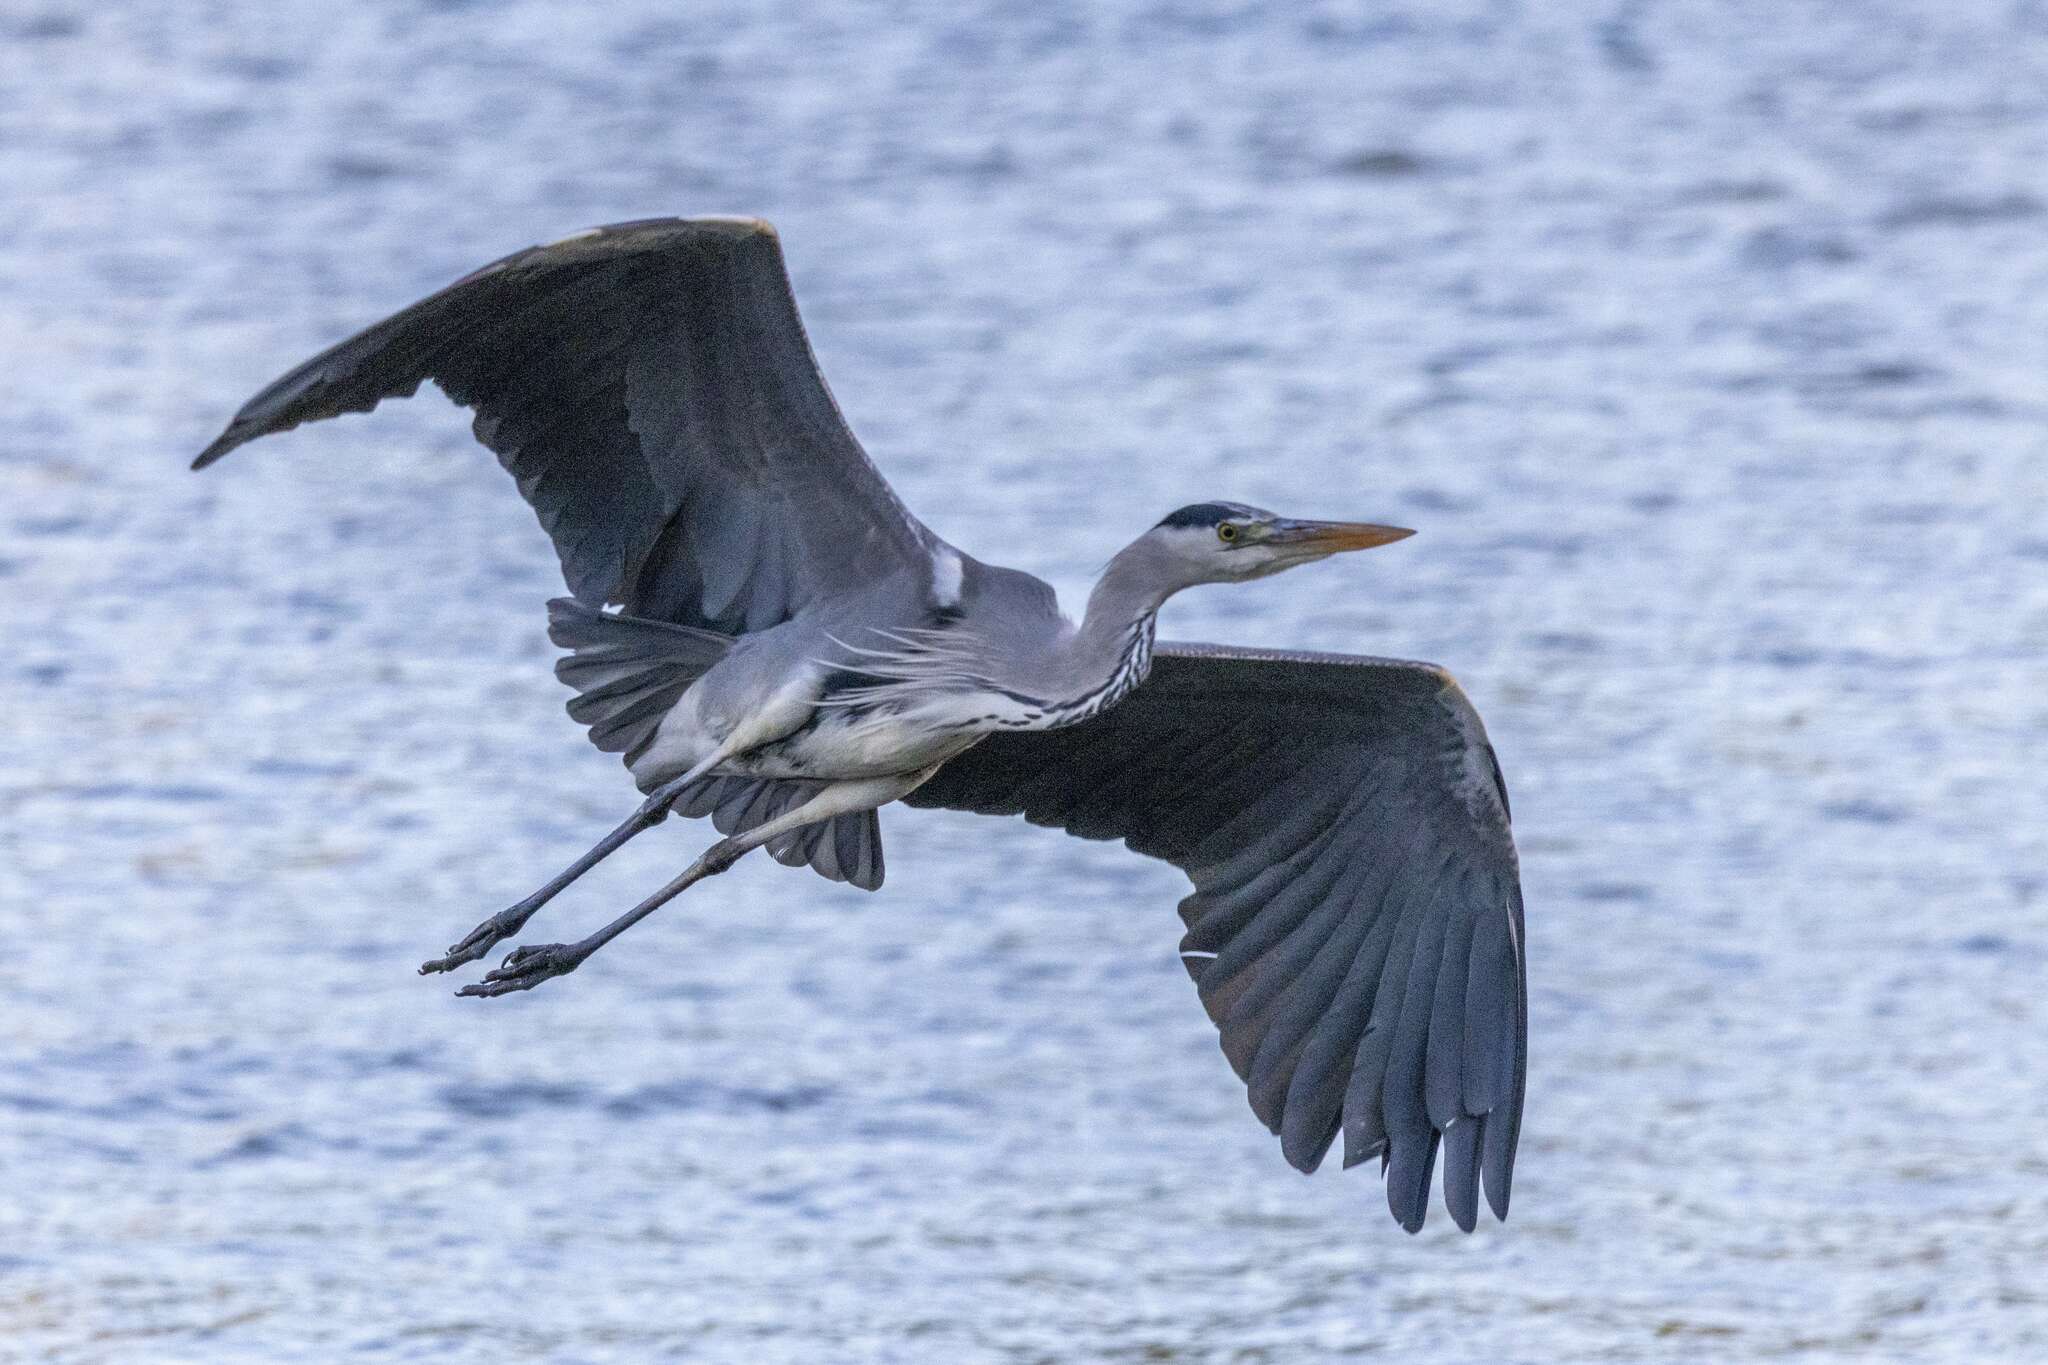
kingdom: Animalia
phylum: Chordata
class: Aves
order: Pelecaniformes
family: Ardeidae
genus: Ardea
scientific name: Ardea cinerea
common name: Grey heron
